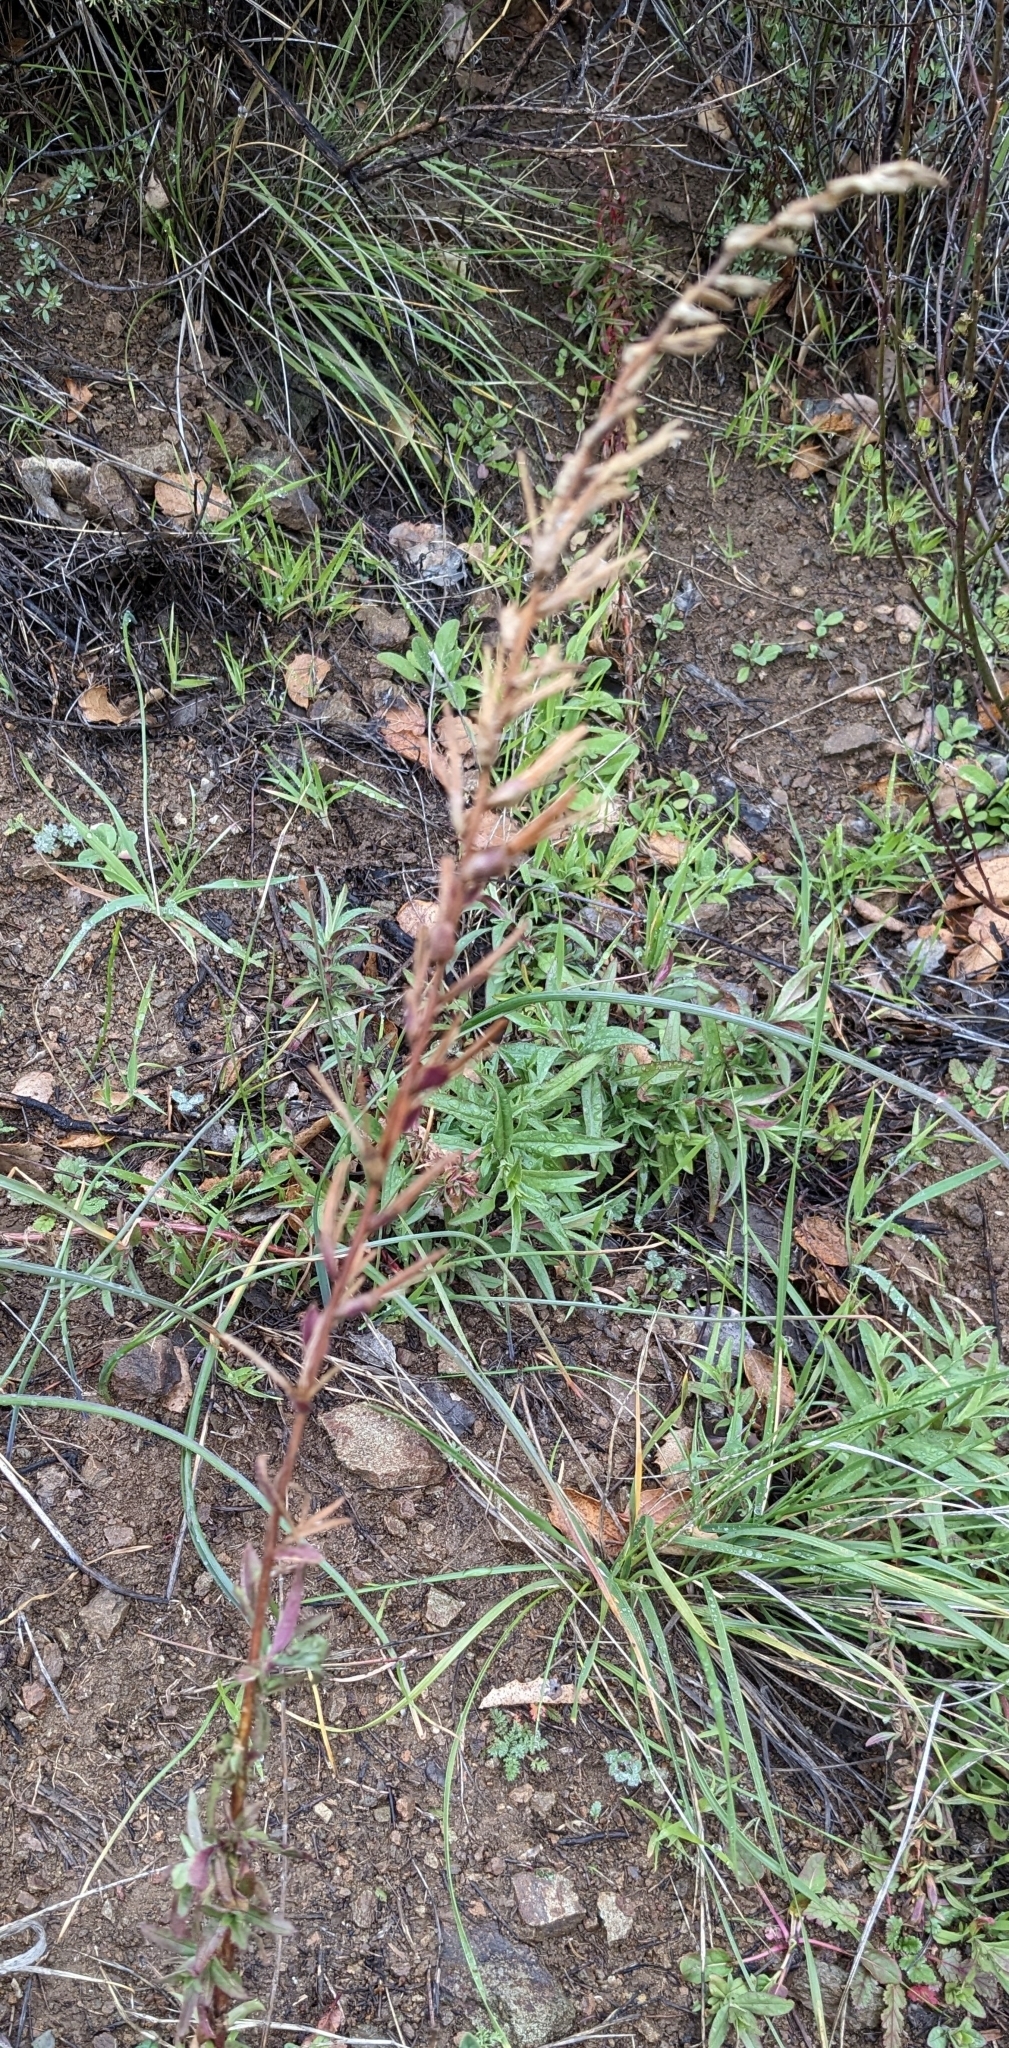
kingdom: Plantae
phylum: Tracheophyta
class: Magnoliopsida
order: Myrtales
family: Onagraceae
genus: Epilobium
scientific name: Epilobium canum
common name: California-fuchsia
